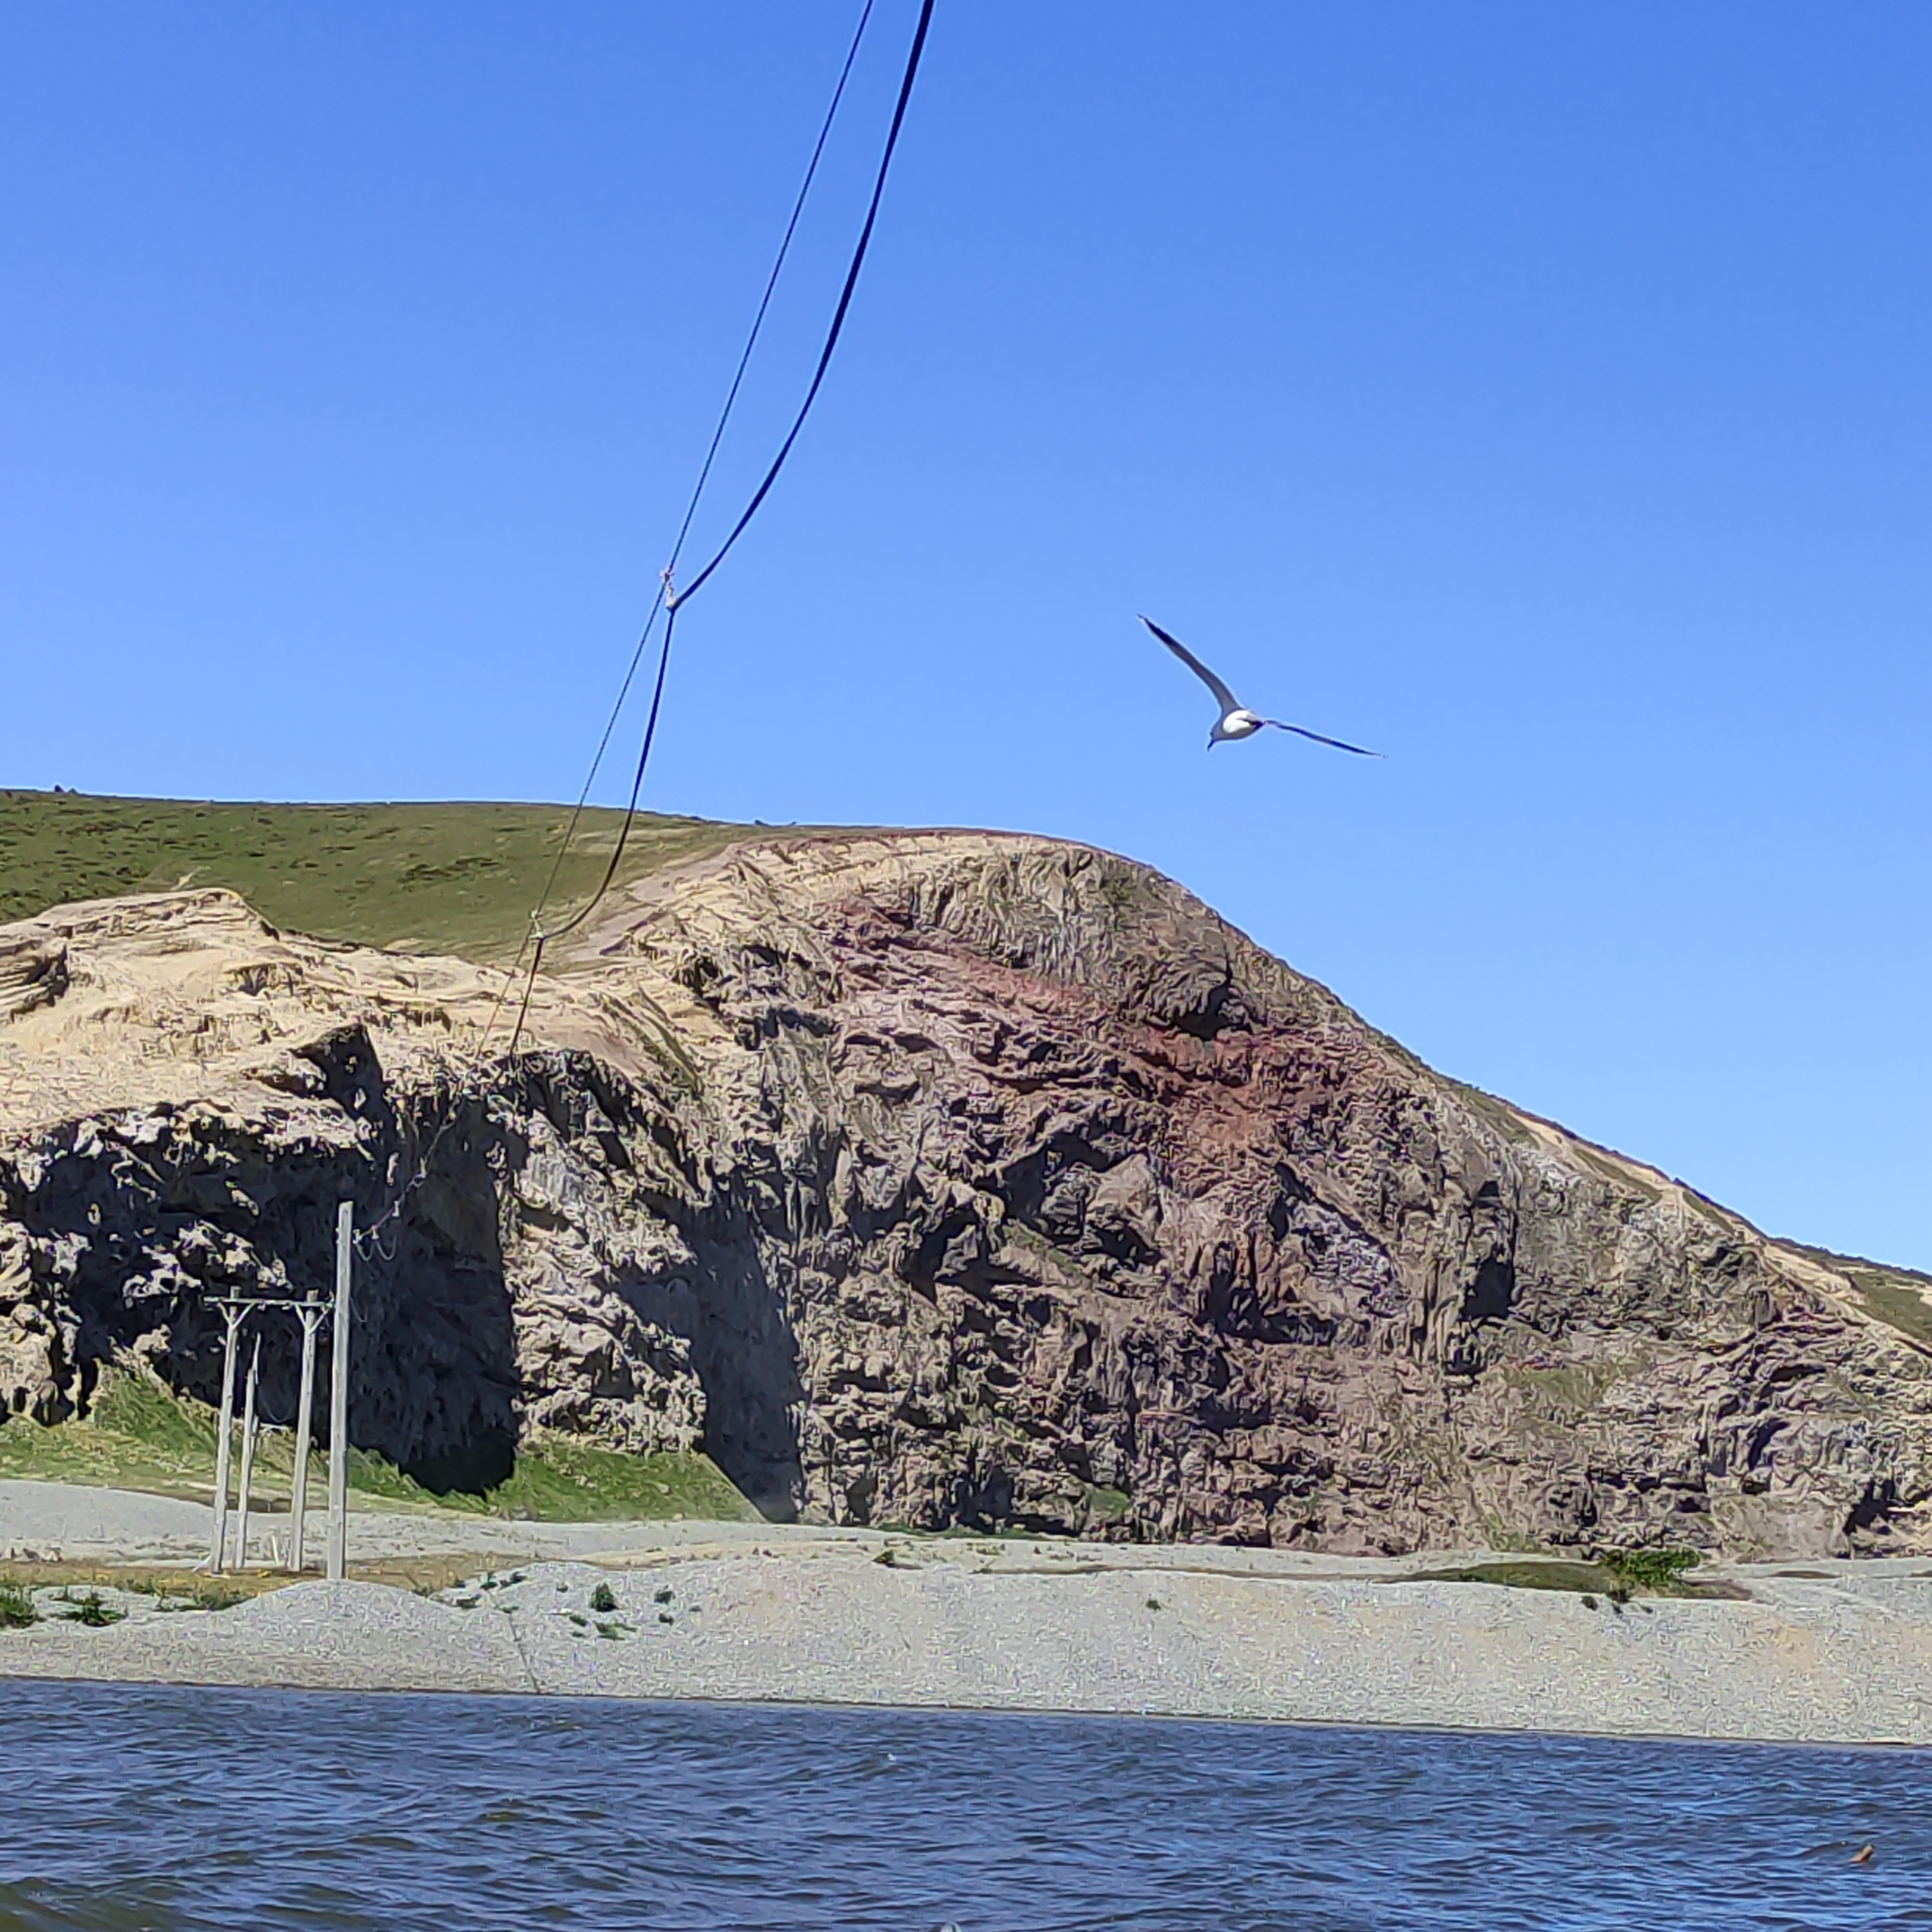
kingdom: Animalia
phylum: Chordata
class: Aves
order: Charadriiformes
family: Laridae
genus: Chroicocephalus
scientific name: Chroicocephalus bulleri
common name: Black-billed gull
